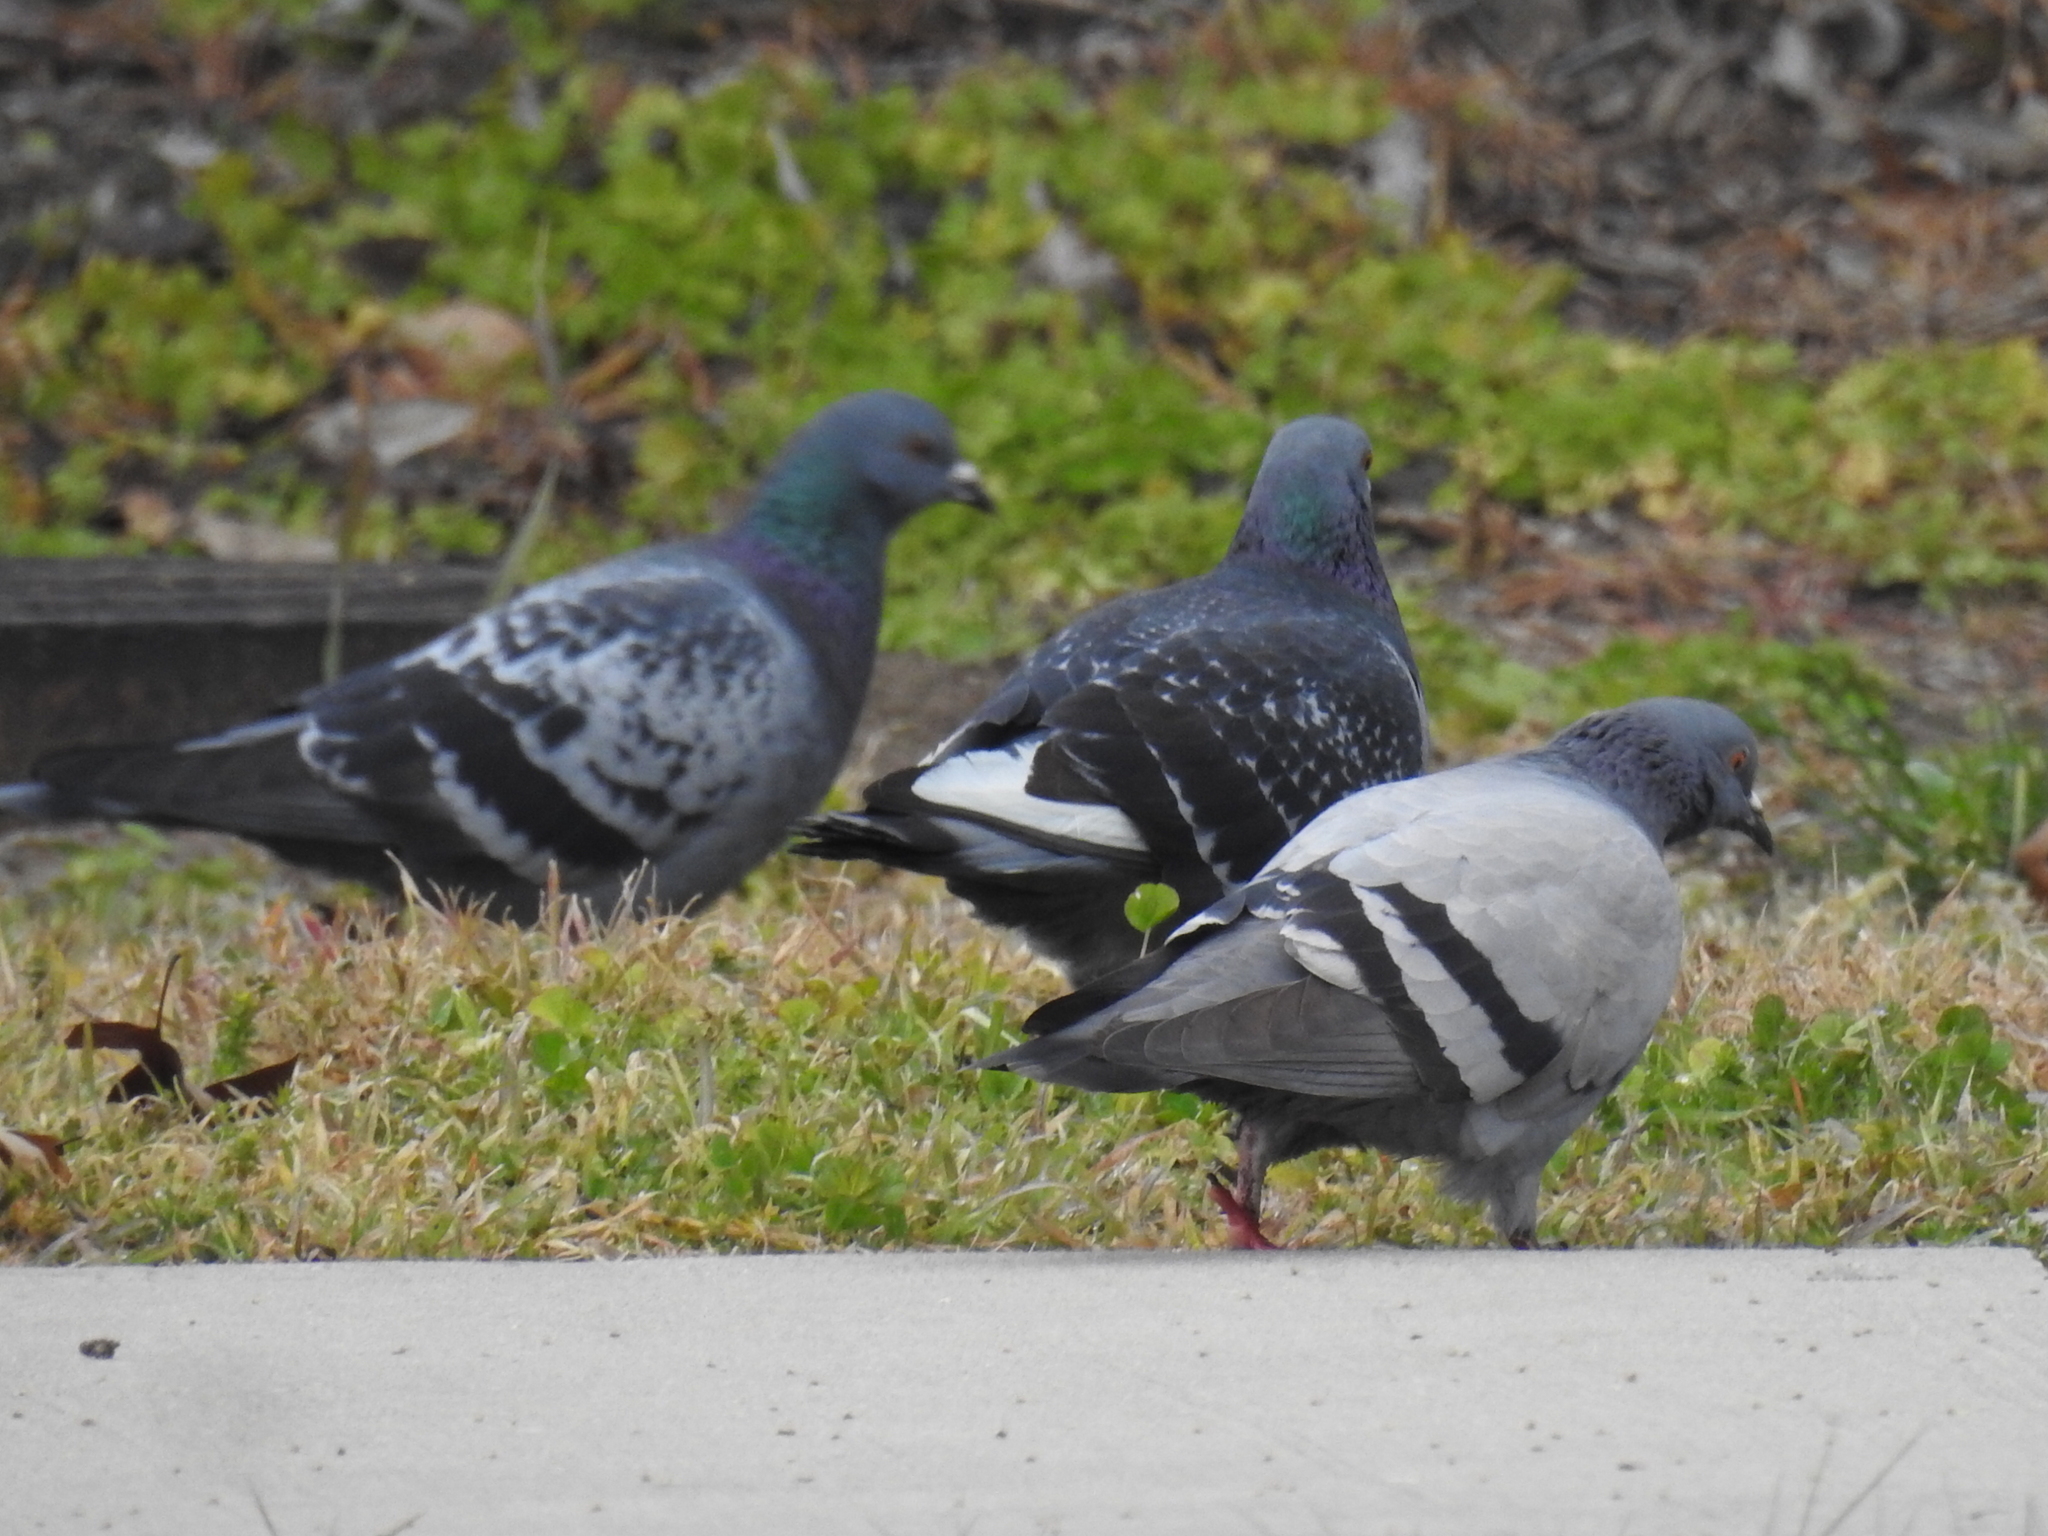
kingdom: Animalia
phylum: Chordata
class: Aves
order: Columbiformes
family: Columbidae
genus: Columba
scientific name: Columba livia
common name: Rock pigeon
